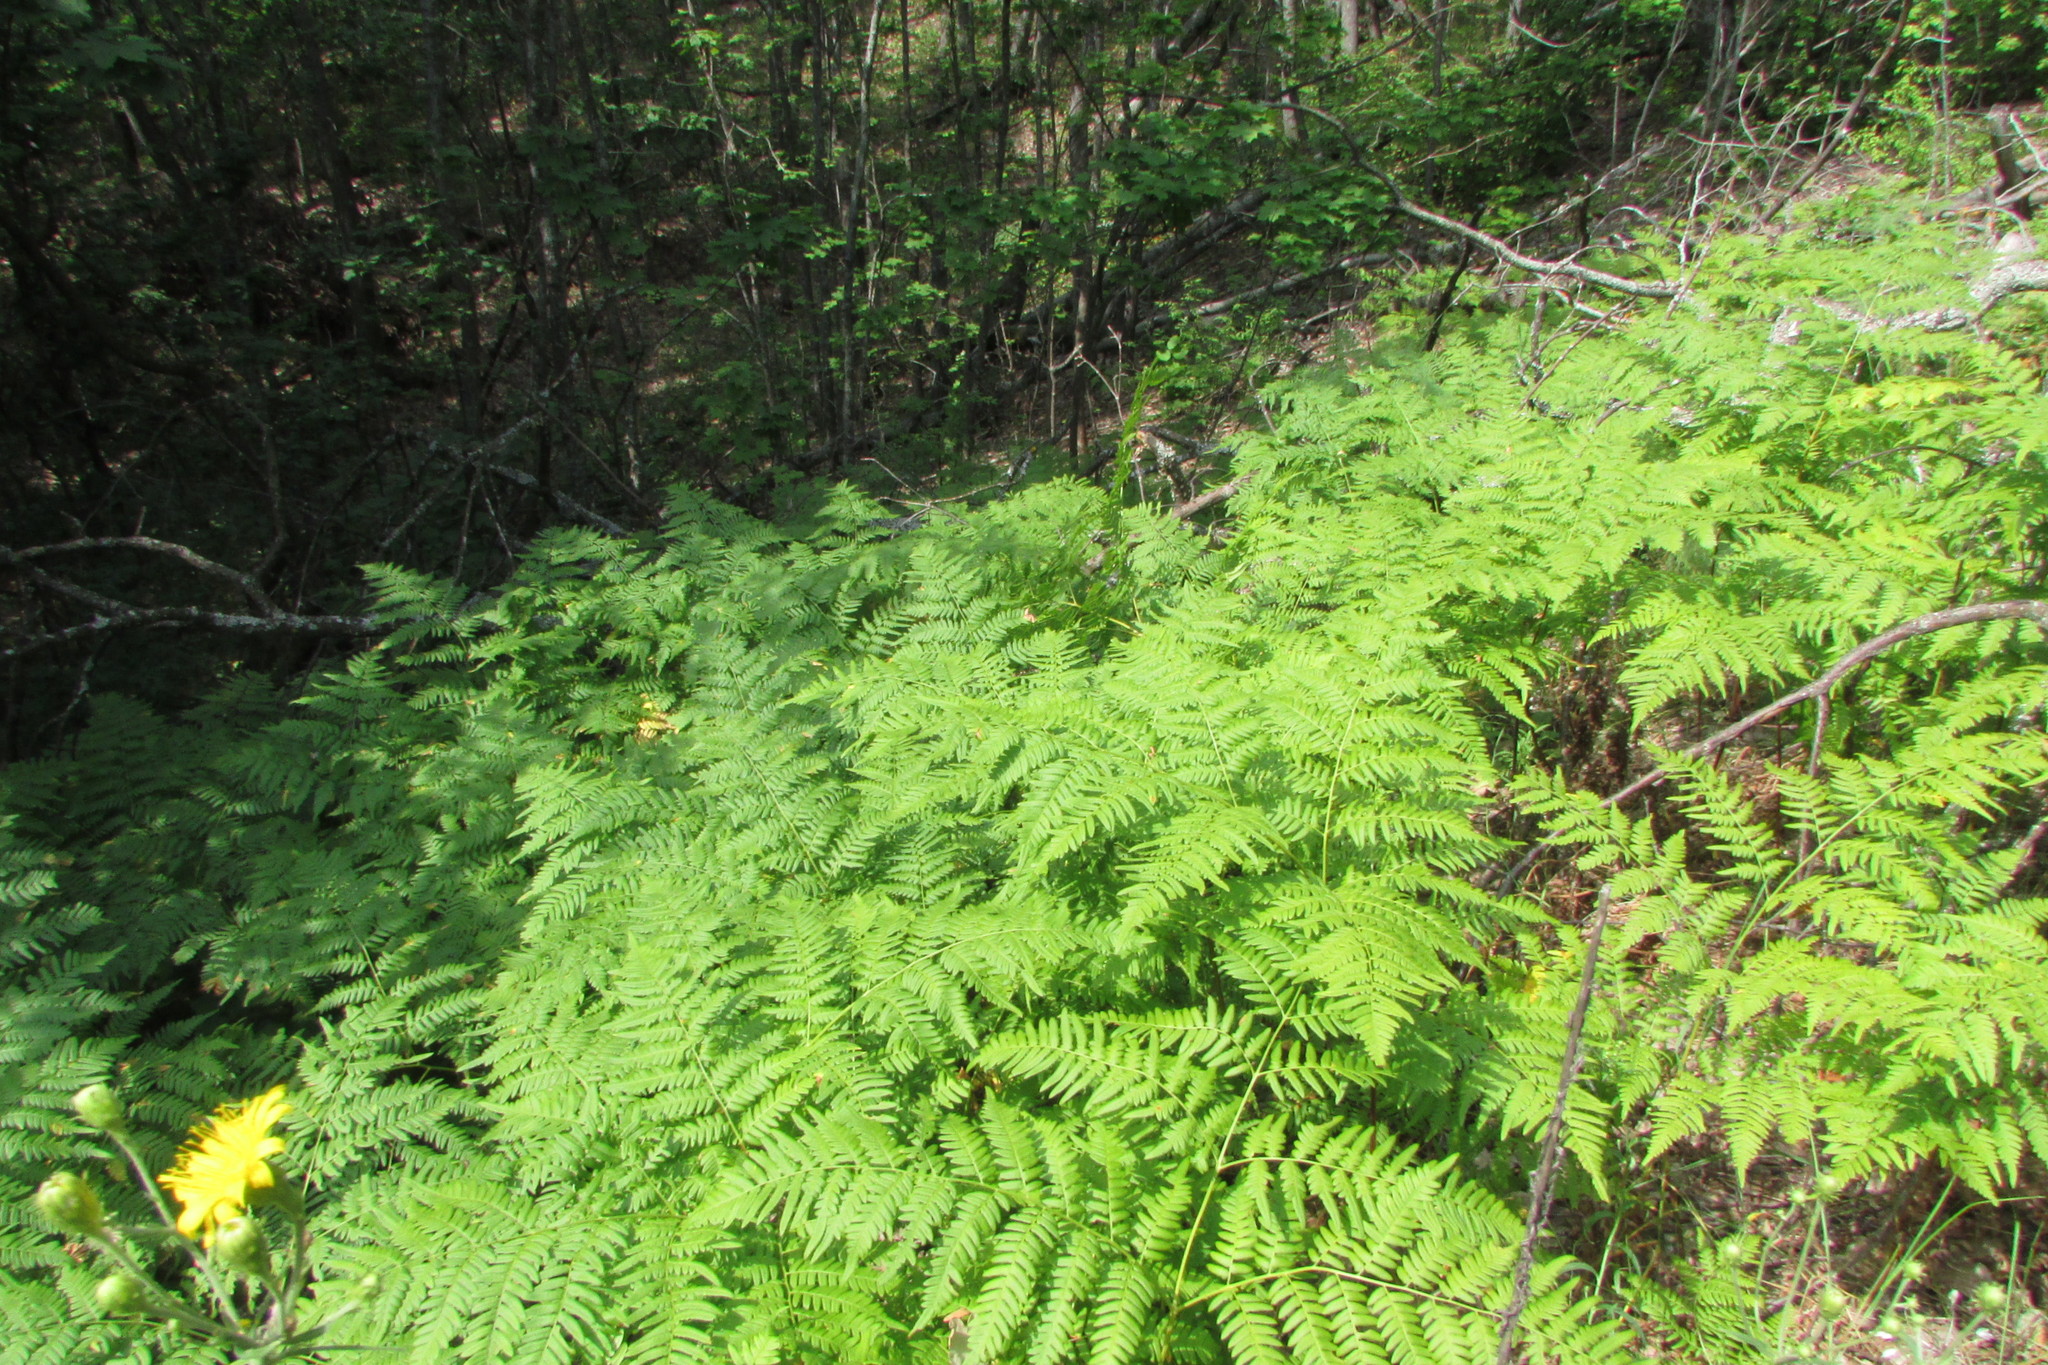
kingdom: Plantae
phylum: Tracheophyta
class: Polypodiopsida
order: Polypodiales
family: Dennstaedtiaceae
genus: Pteridium
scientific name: Pteridium aquilinum
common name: Bracken
